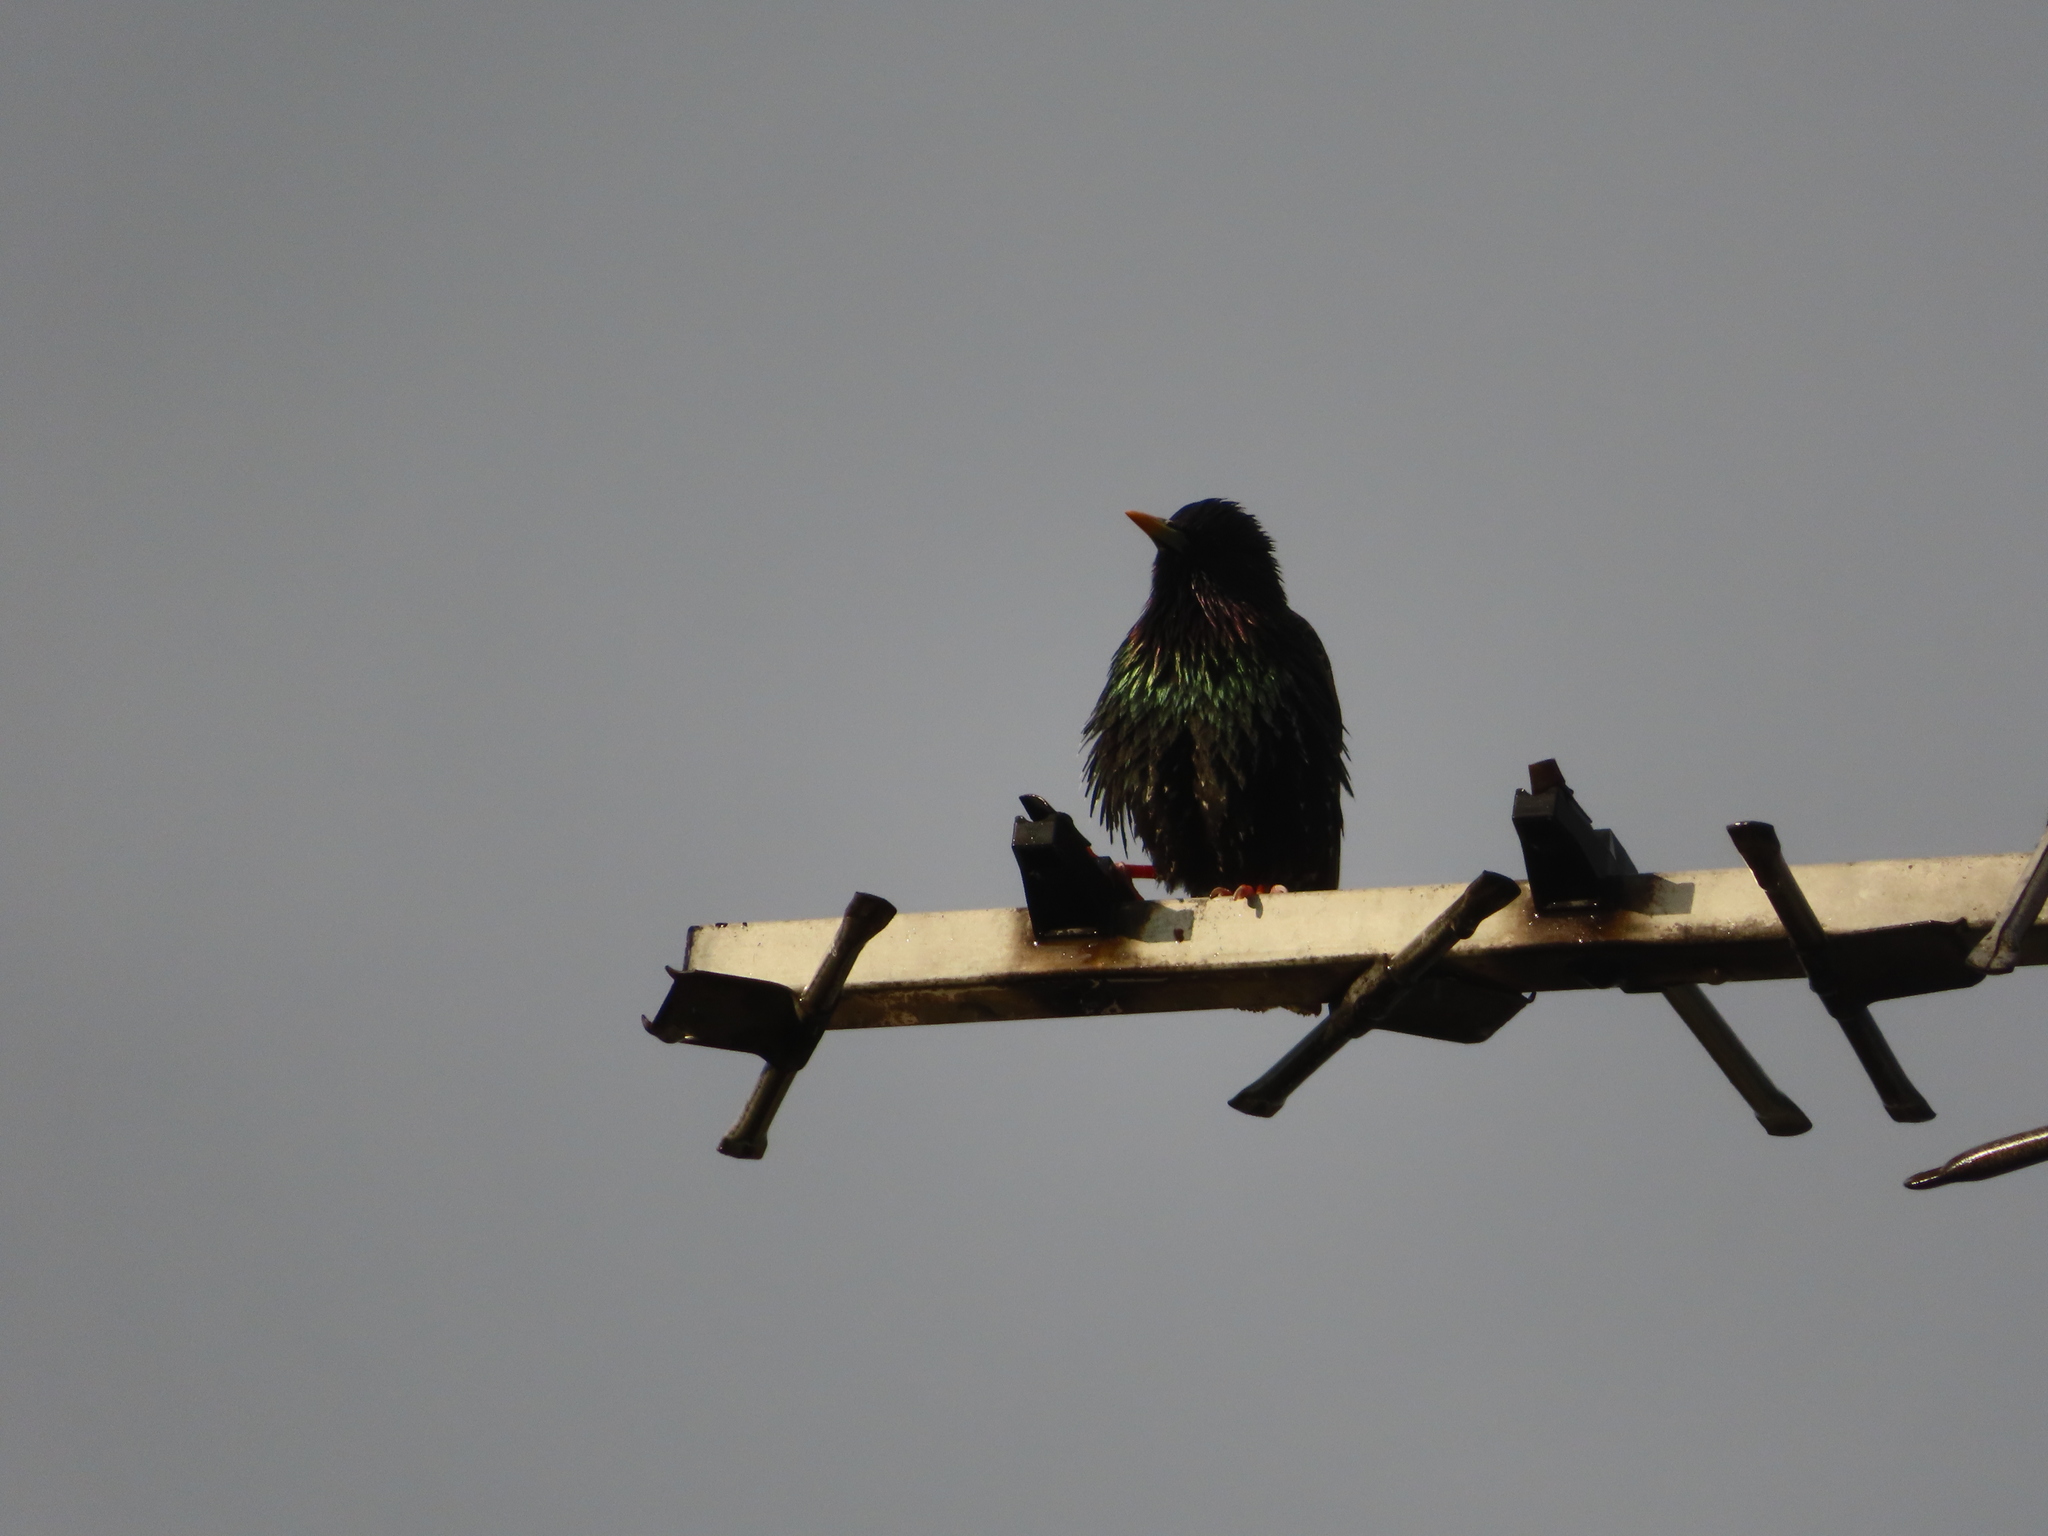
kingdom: Animalia
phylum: Chordata
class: Aves
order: Passeriformes
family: Sturnidae
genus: Sturnus
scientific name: Sturnus vulgaris
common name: Common starling
